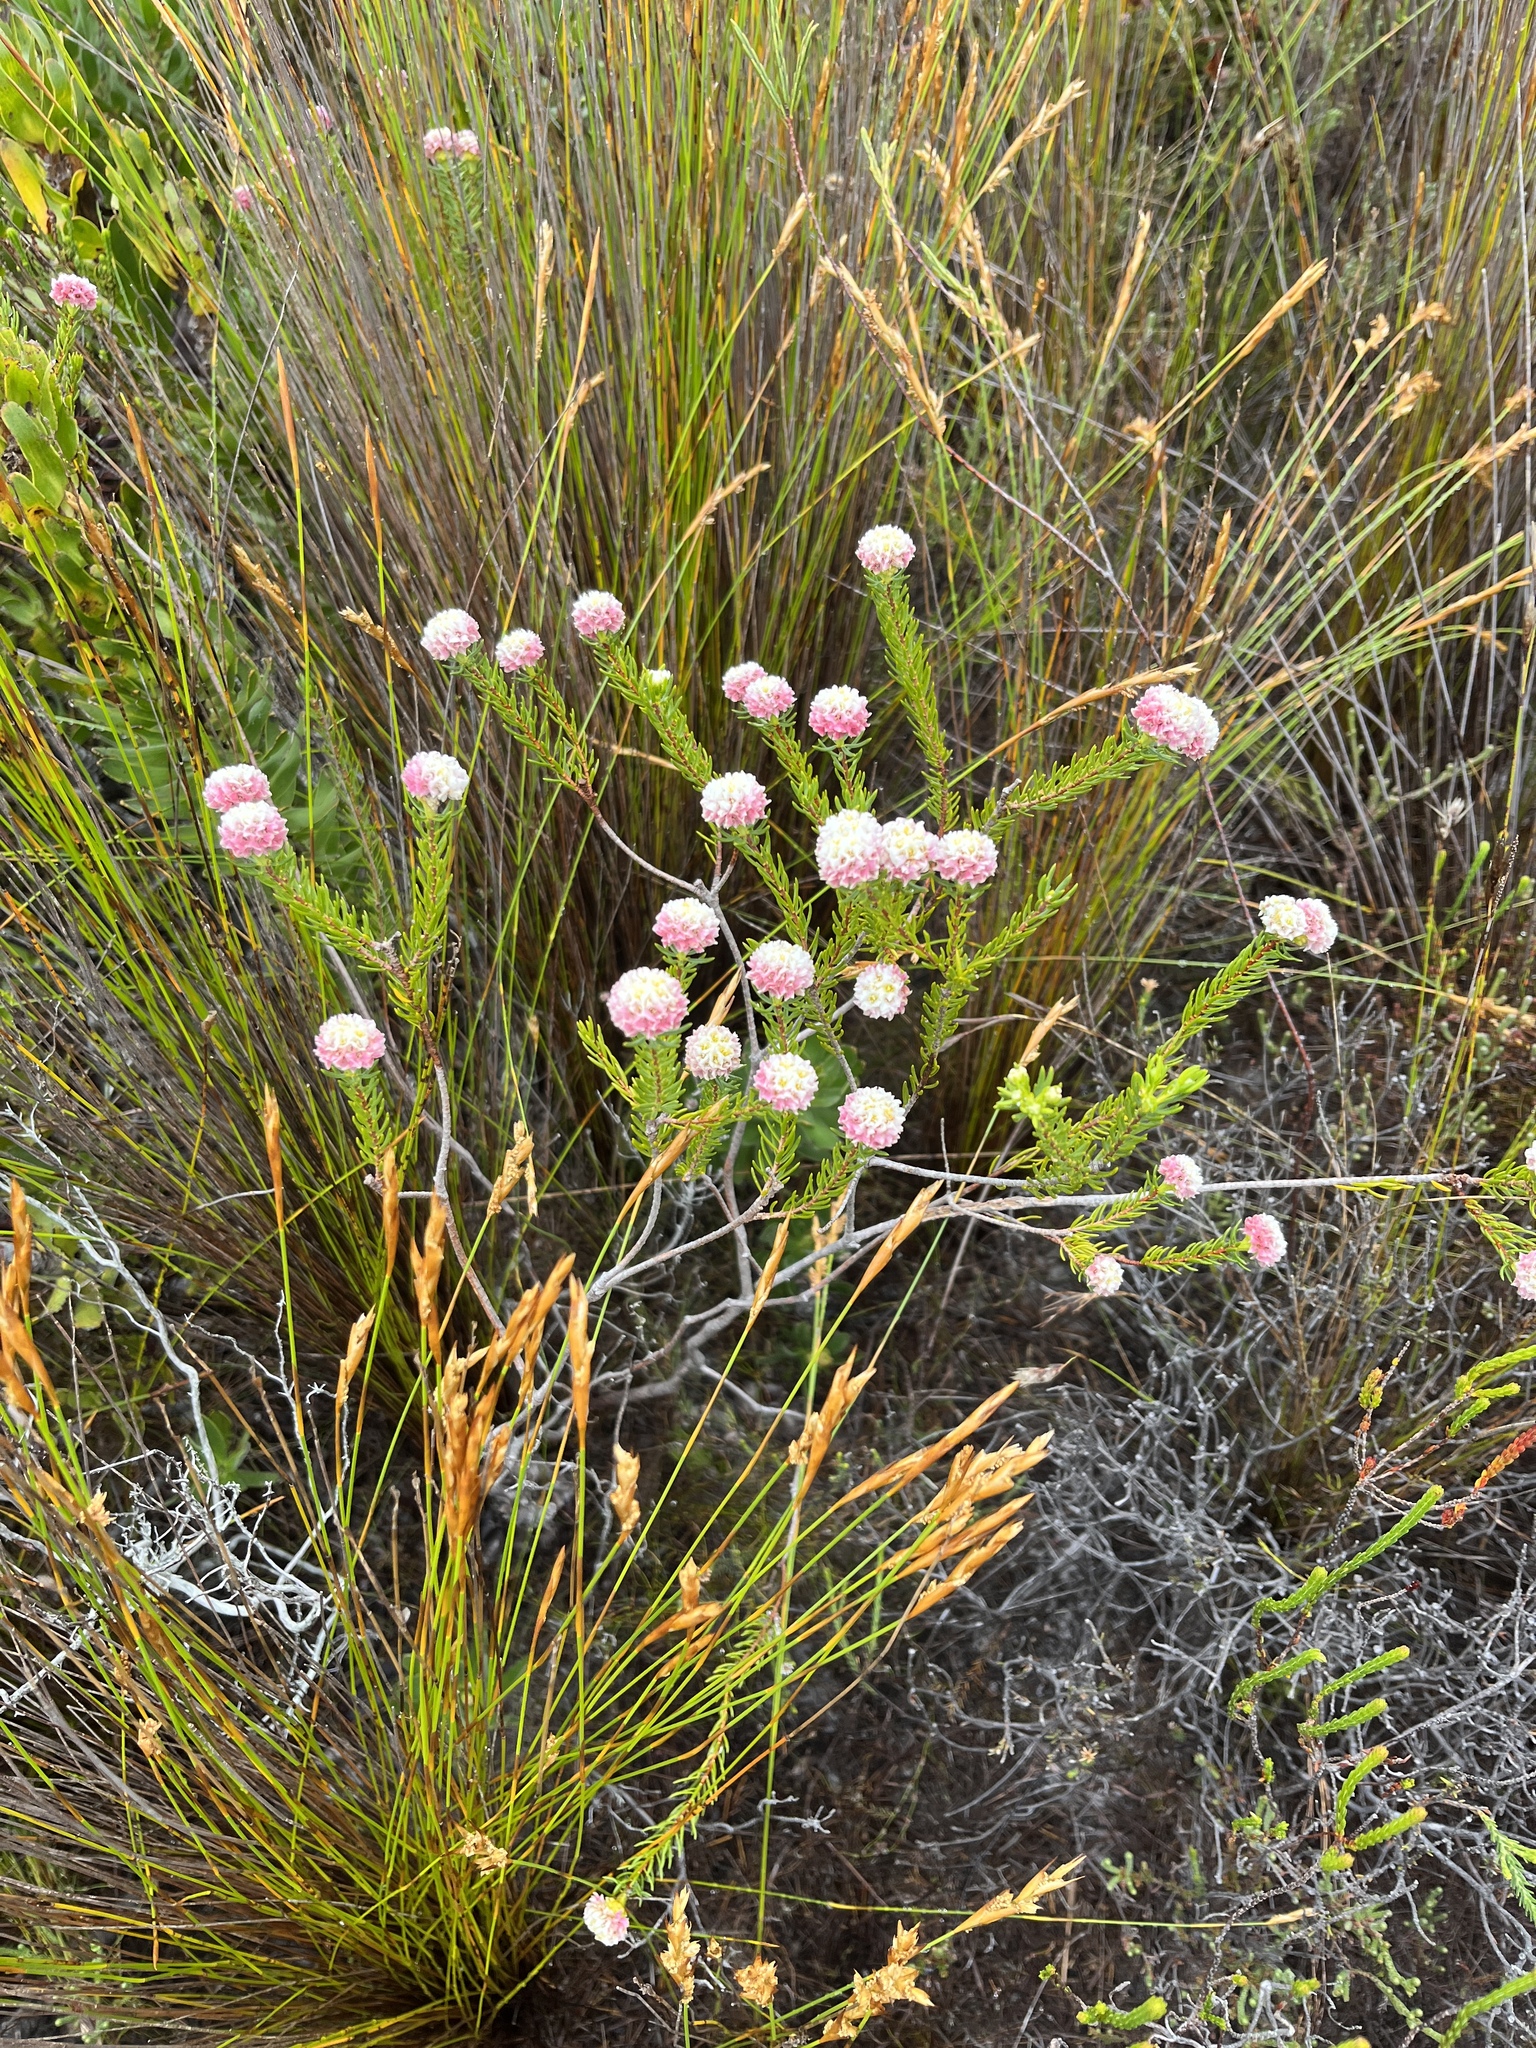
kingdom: Plantae
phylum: Tracheophyta
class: Magnoliopsida
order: Malvales
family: Thymelaeaceae
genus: Lachnaea
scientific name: Lachnaea densiflora
